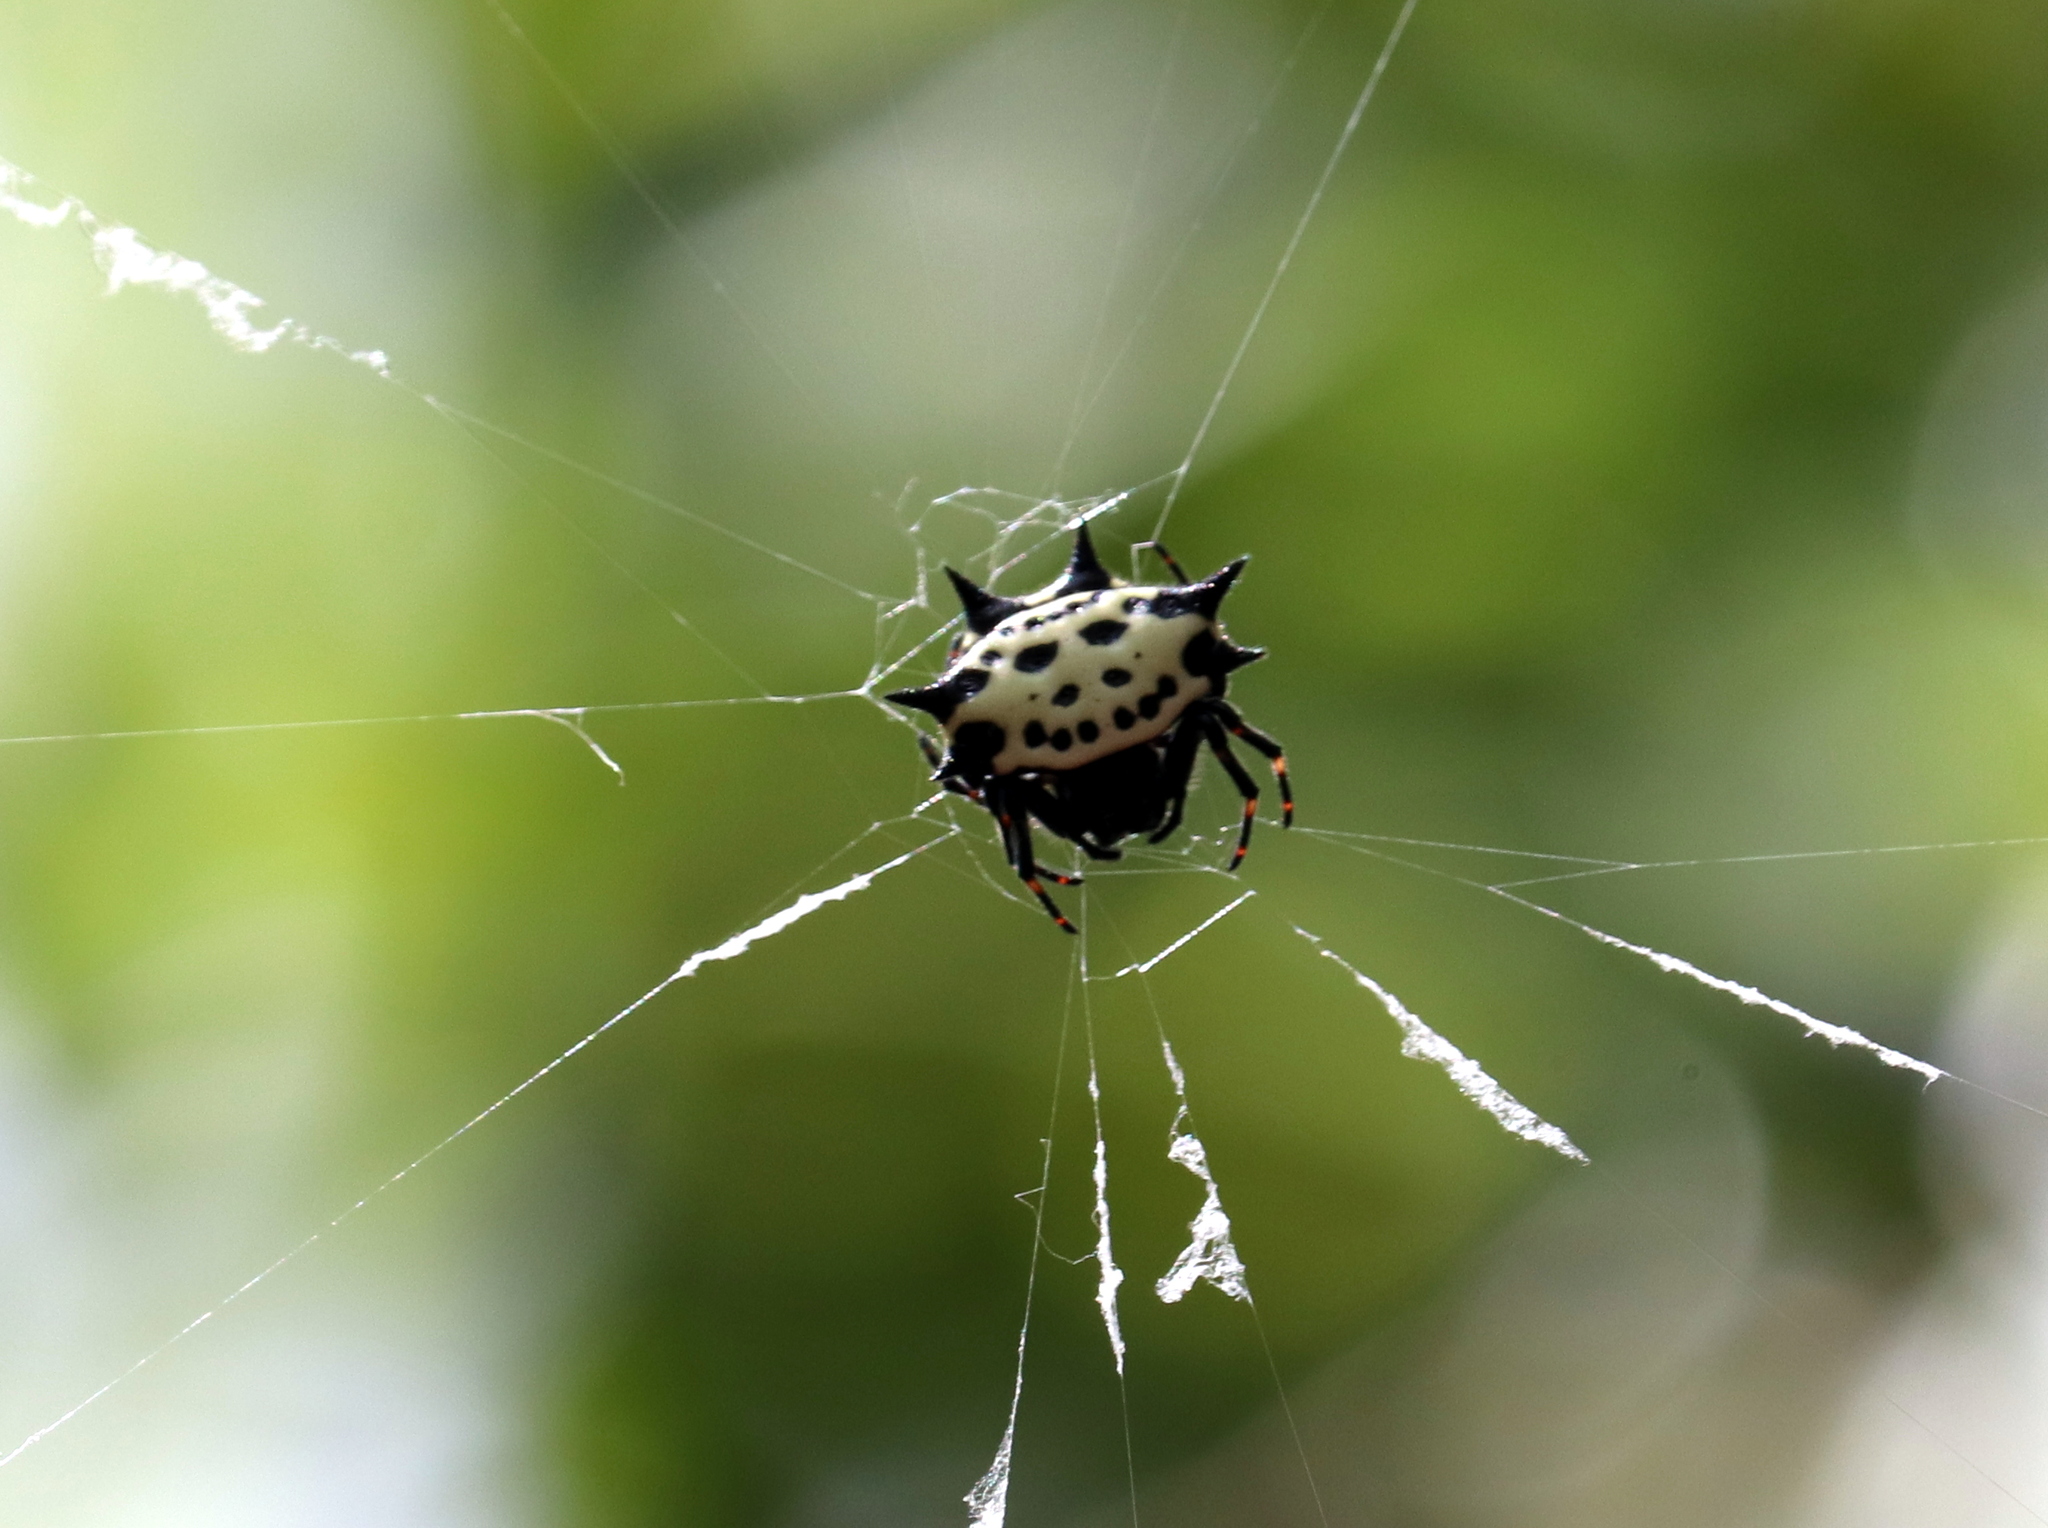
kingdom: Animalia
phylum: Arthropoda
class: Arachnida
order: Araneae
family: Araneidae
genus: Gasteracantha
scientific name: Gasteracantha cancriformis
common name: Orb weavers
